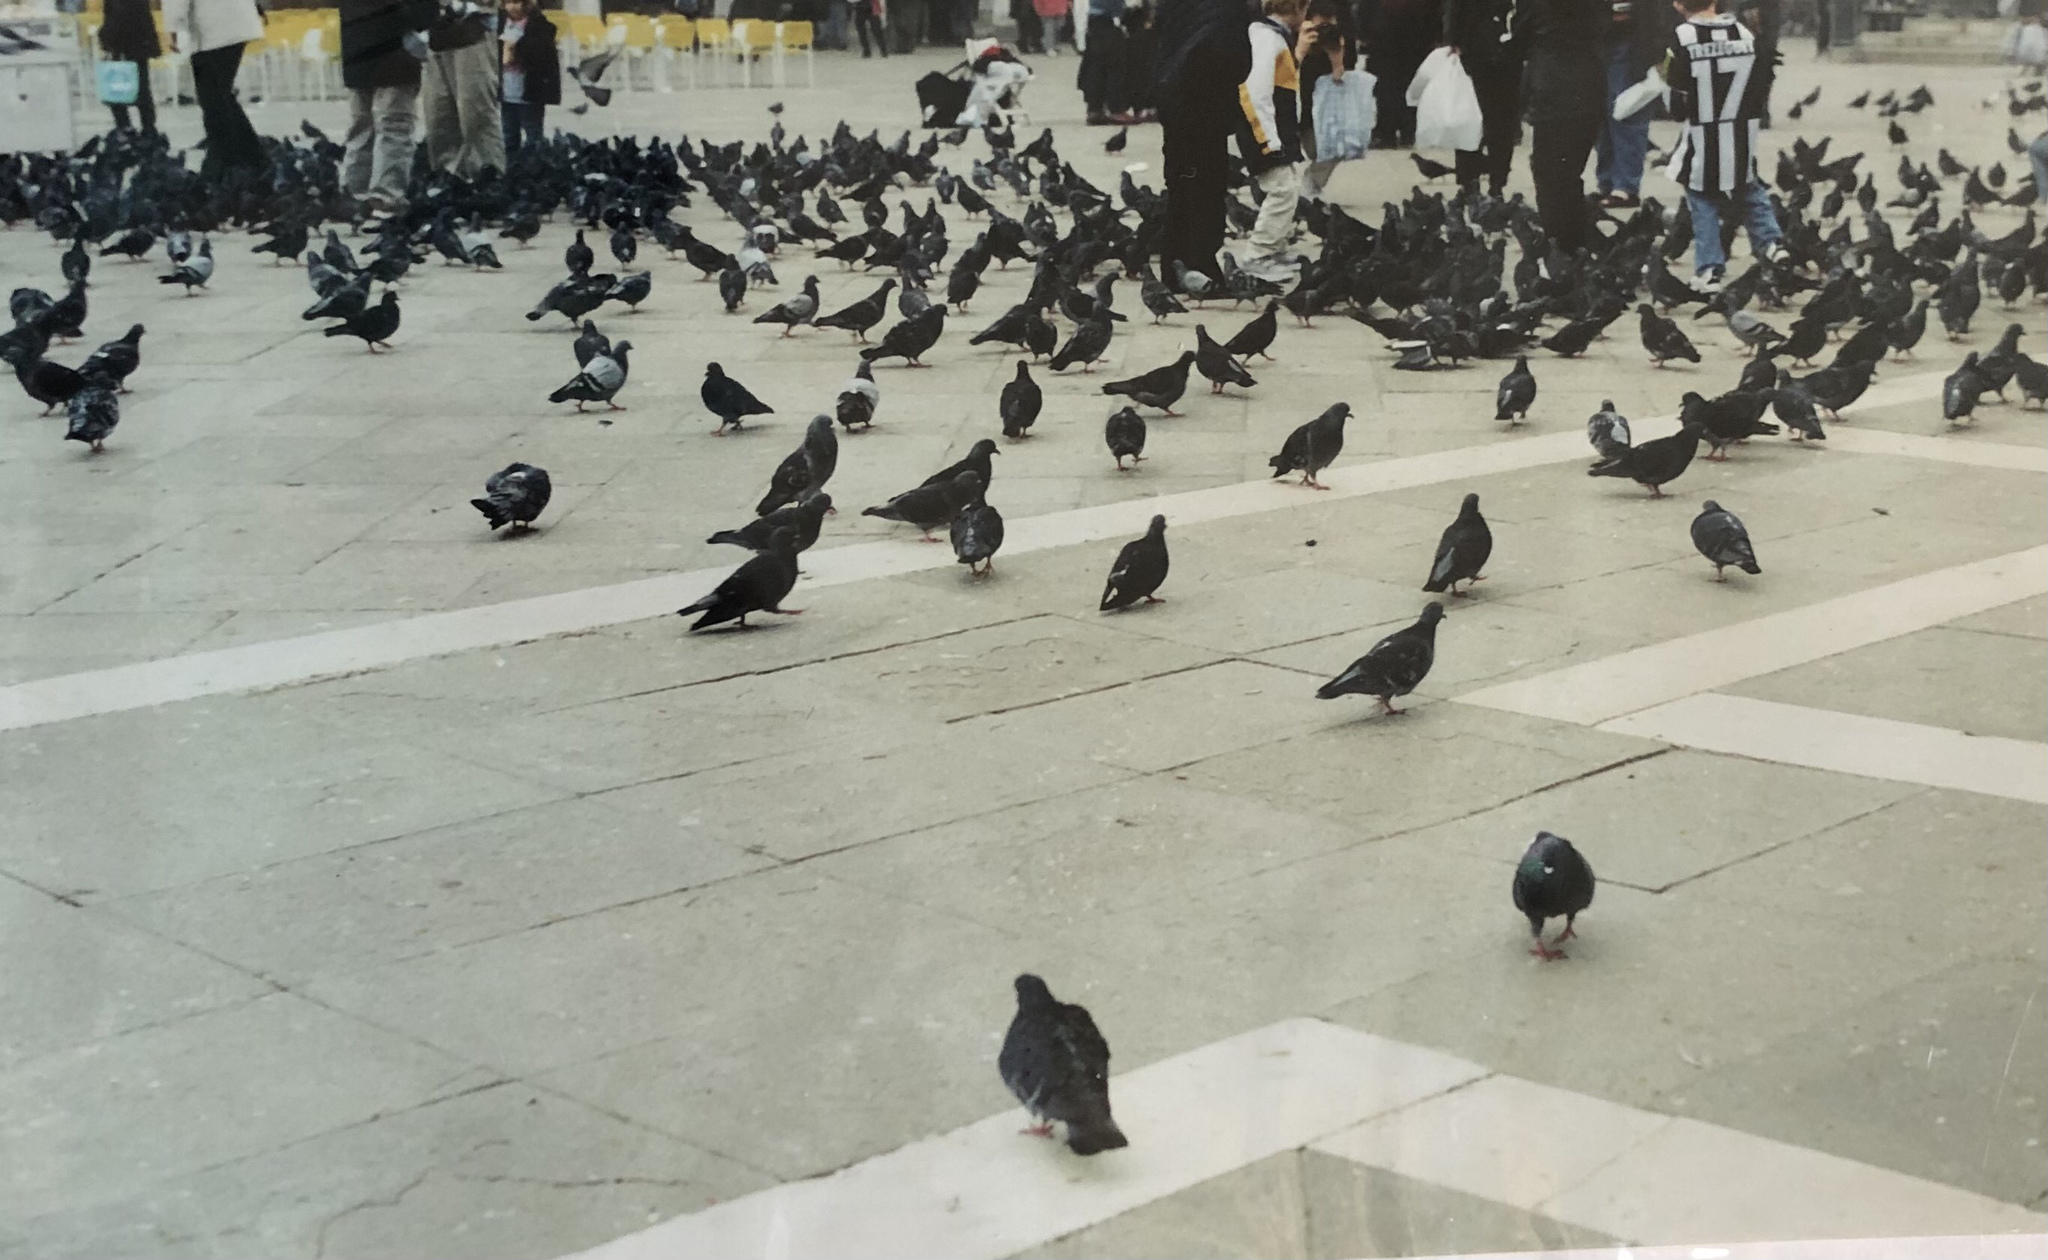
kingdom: Animalia
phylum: Chordata
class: Aves
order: Columbiformes
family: Columbidae
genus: Columba
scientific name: Columba livia
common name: Rock pigeon
